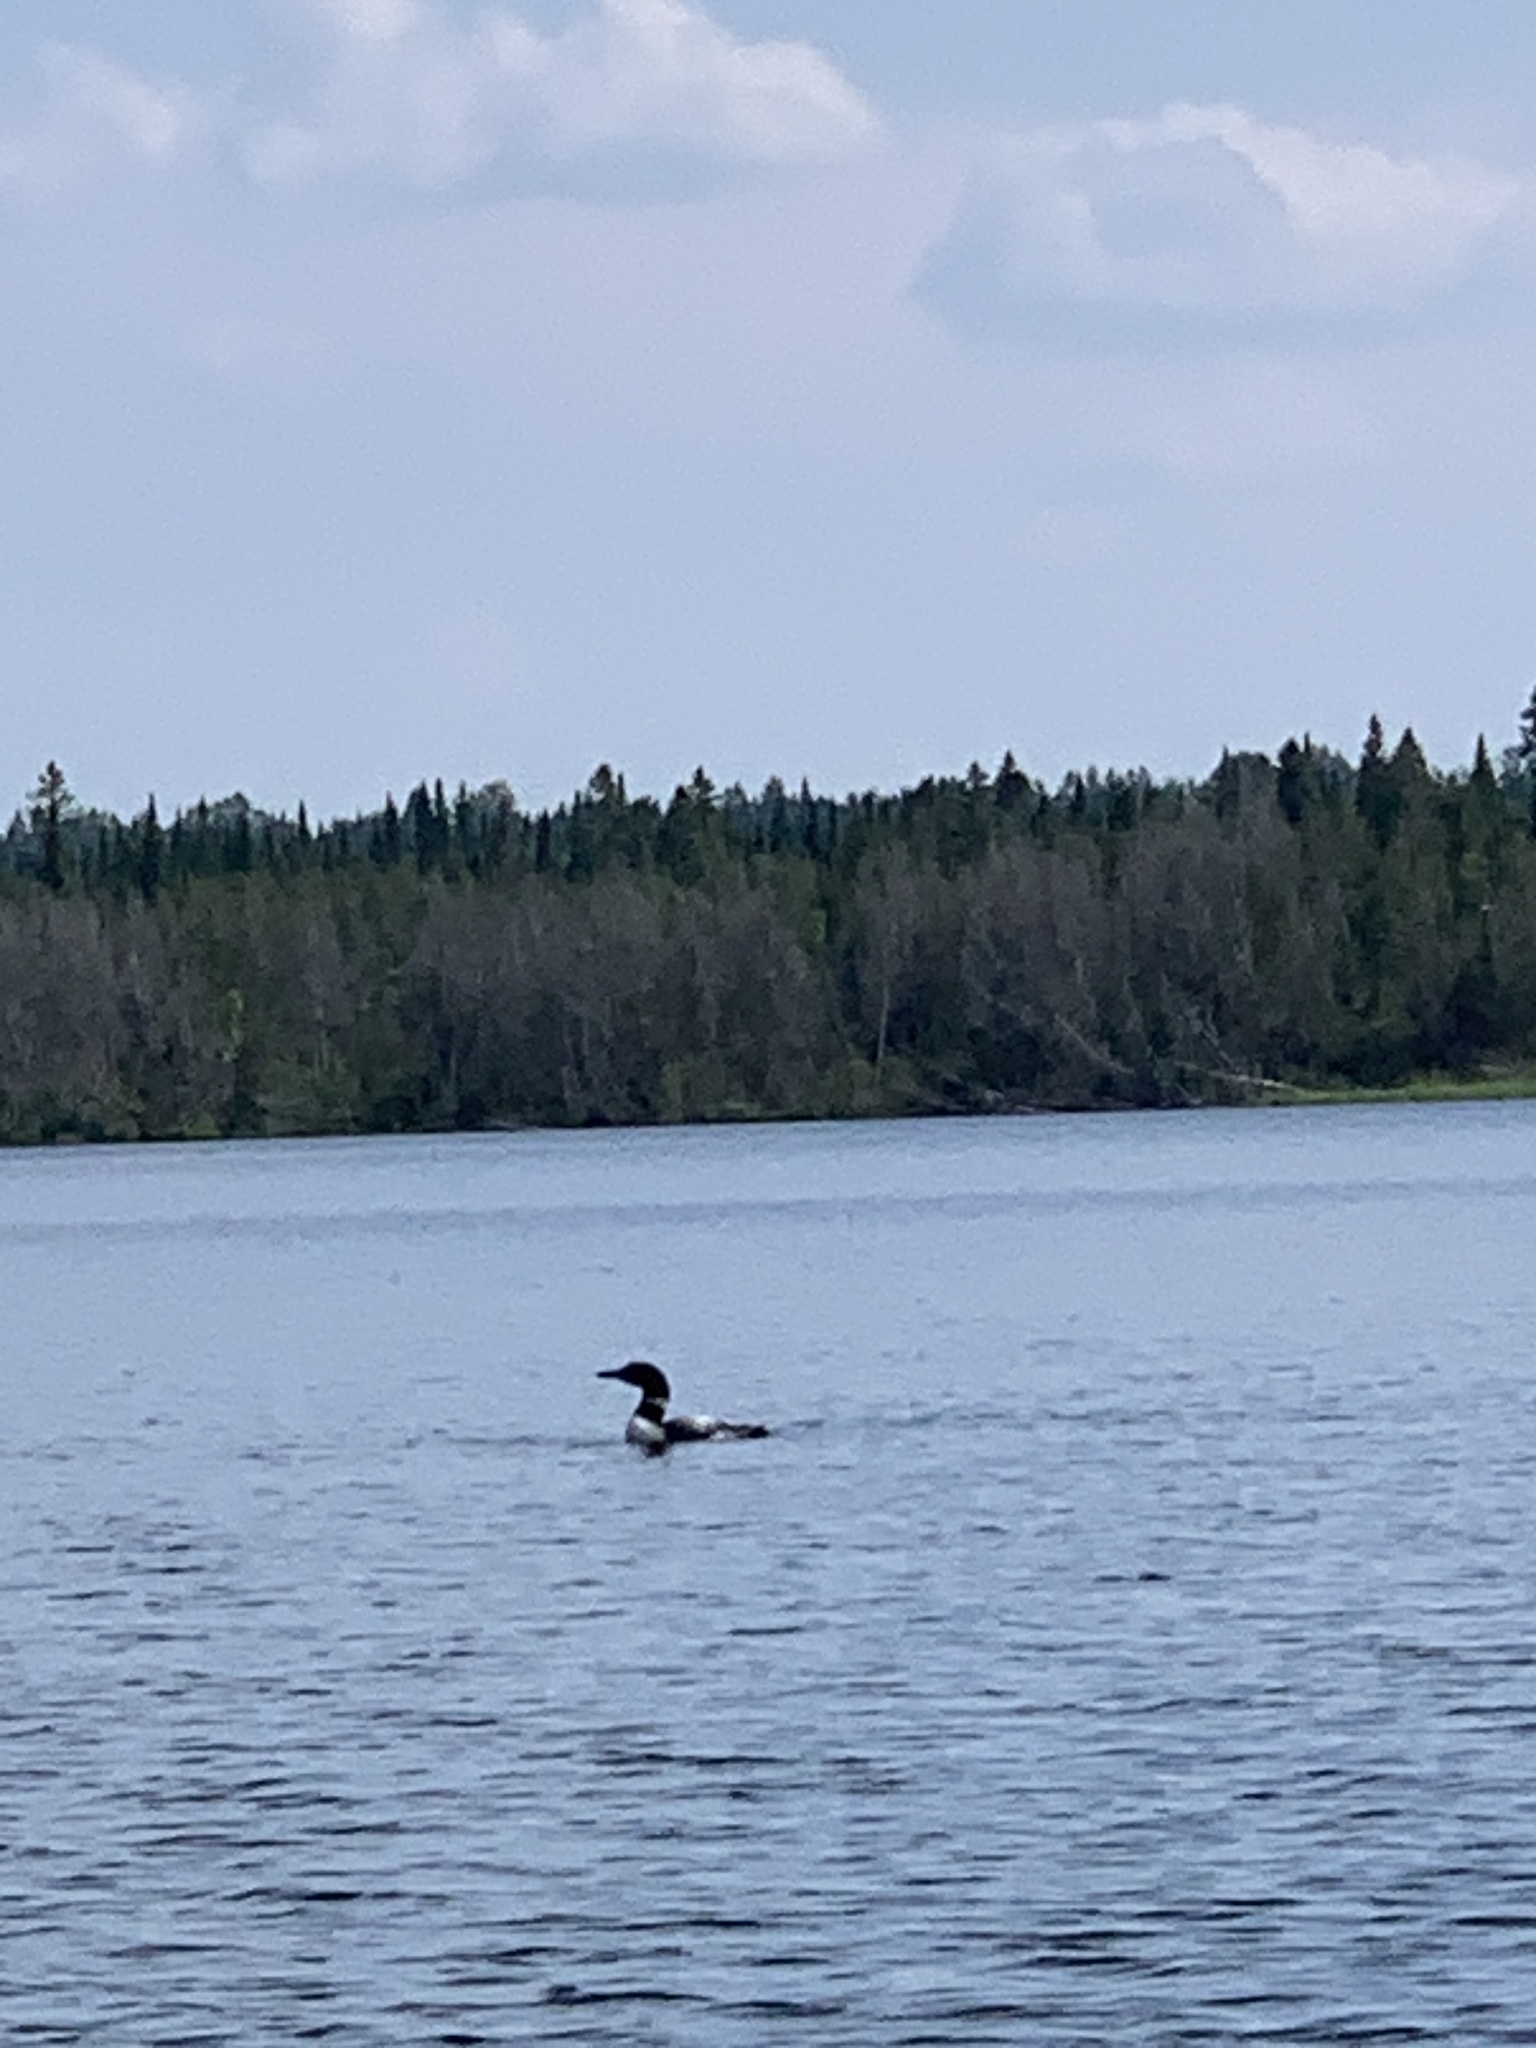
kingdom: Animalia
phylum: Chordata
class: Aves
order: Gaviiformes
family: Gaviidae
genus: Gavia
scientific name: Gavia immer
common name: Common loon
